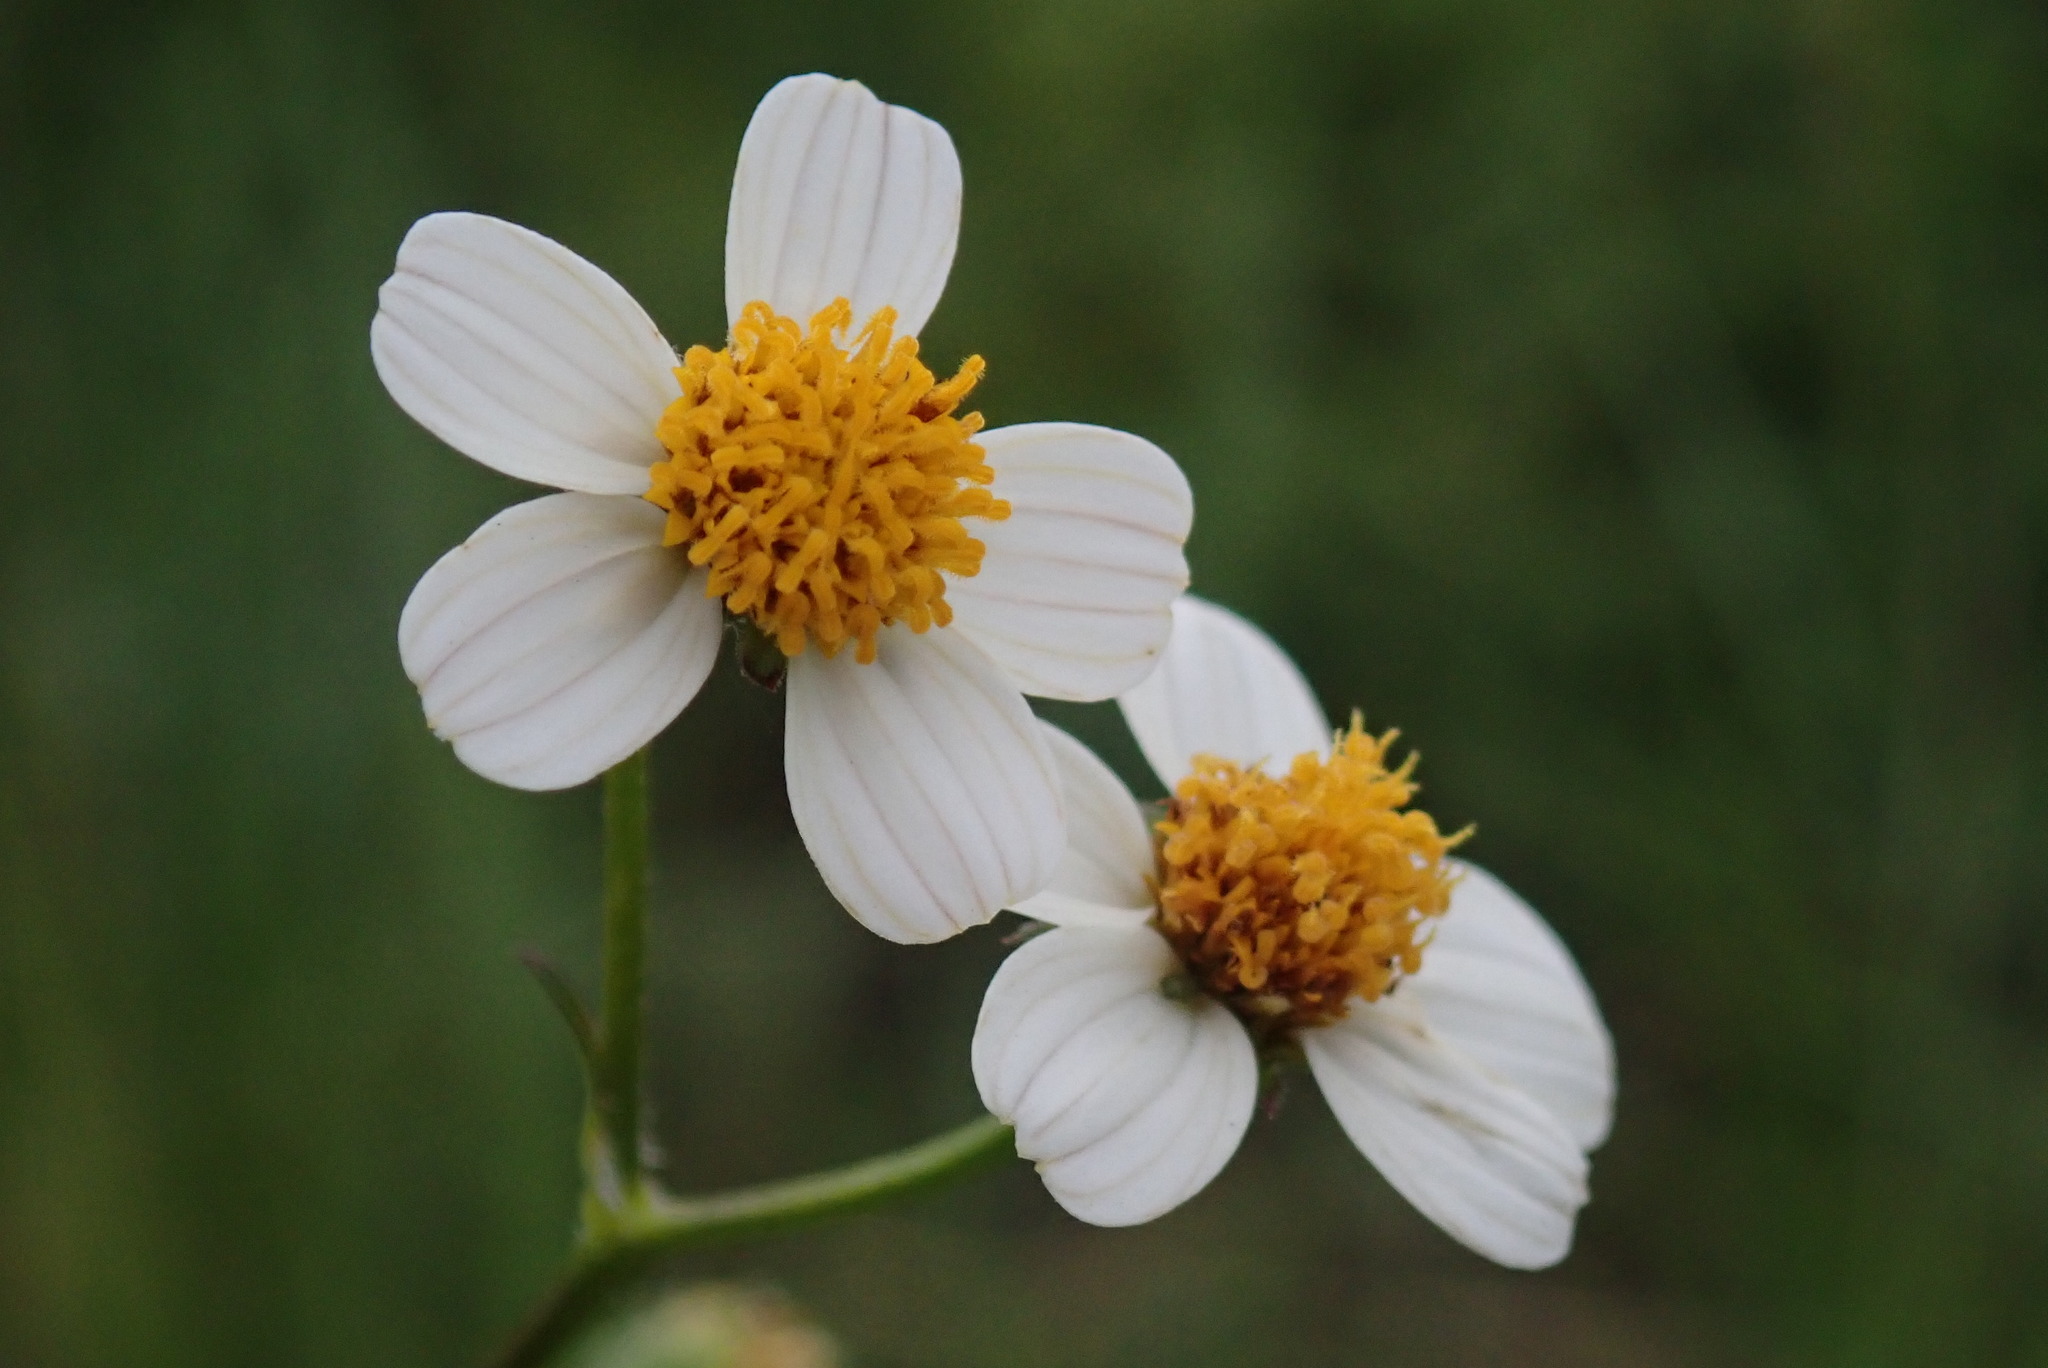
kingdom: Plantae
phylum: Tracheophyta
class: Magnoliopsida
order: Asterales
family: Asteraceae
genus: Bidens
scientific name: Bidens pilosa
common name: Black-jack
